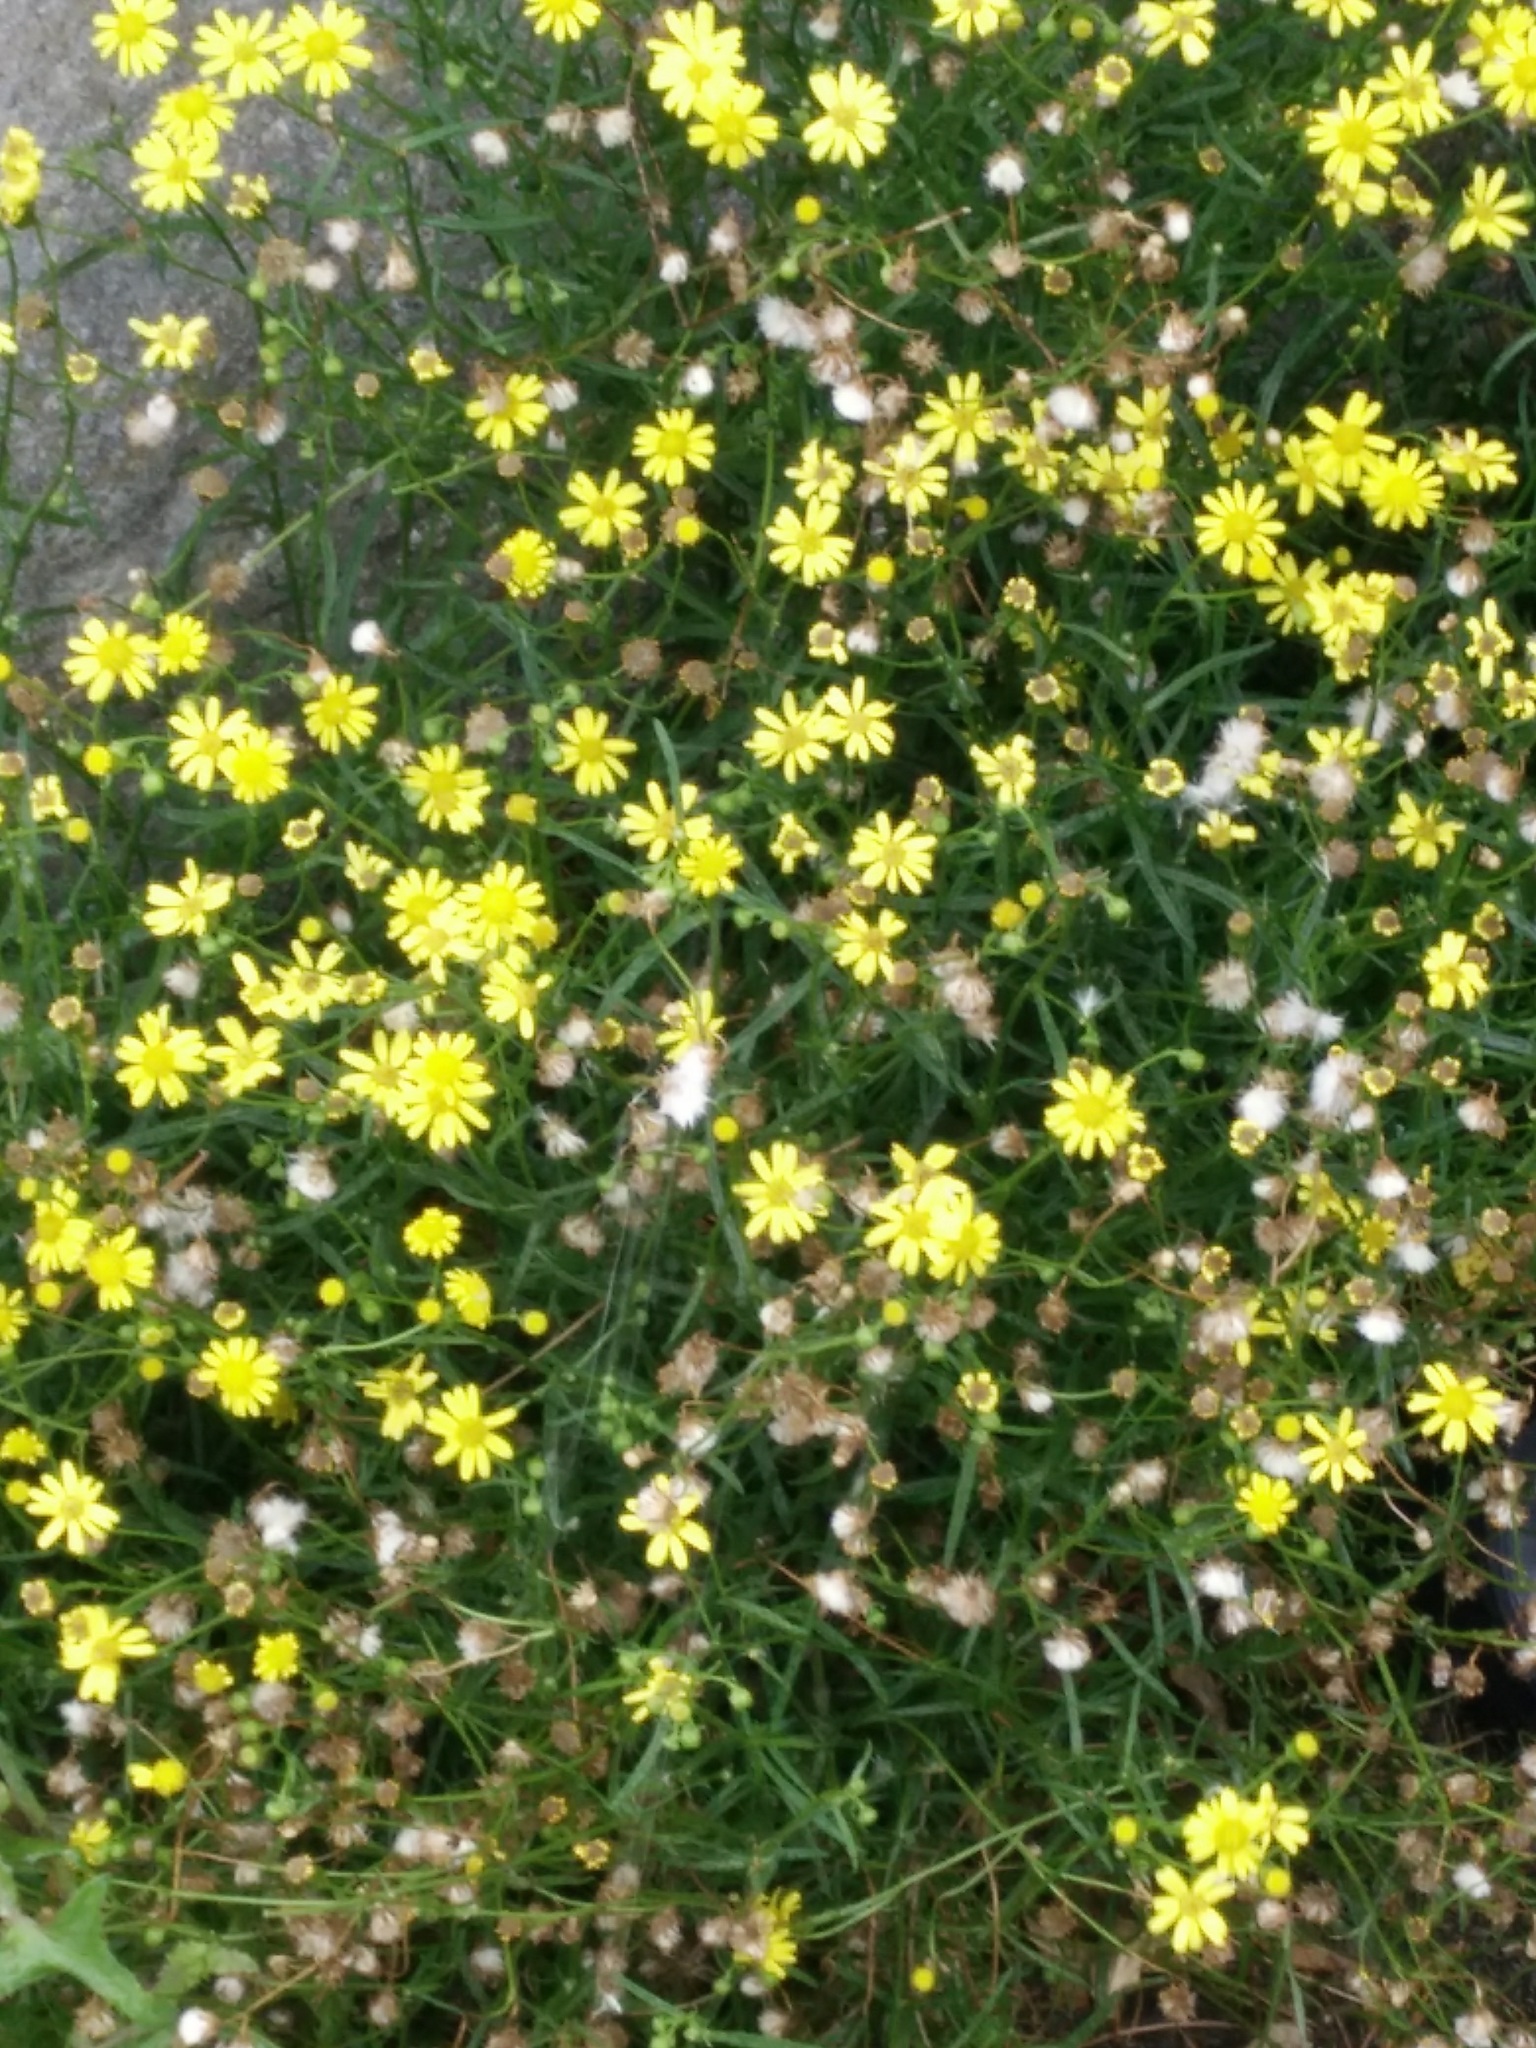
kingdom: Plantae
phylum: Tracheophyta
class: Magnoliopsida
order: Asterales
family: Asteraceae
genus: Senecio
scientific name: Senecio inaequidens
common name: Narrow-leaved ragwort
